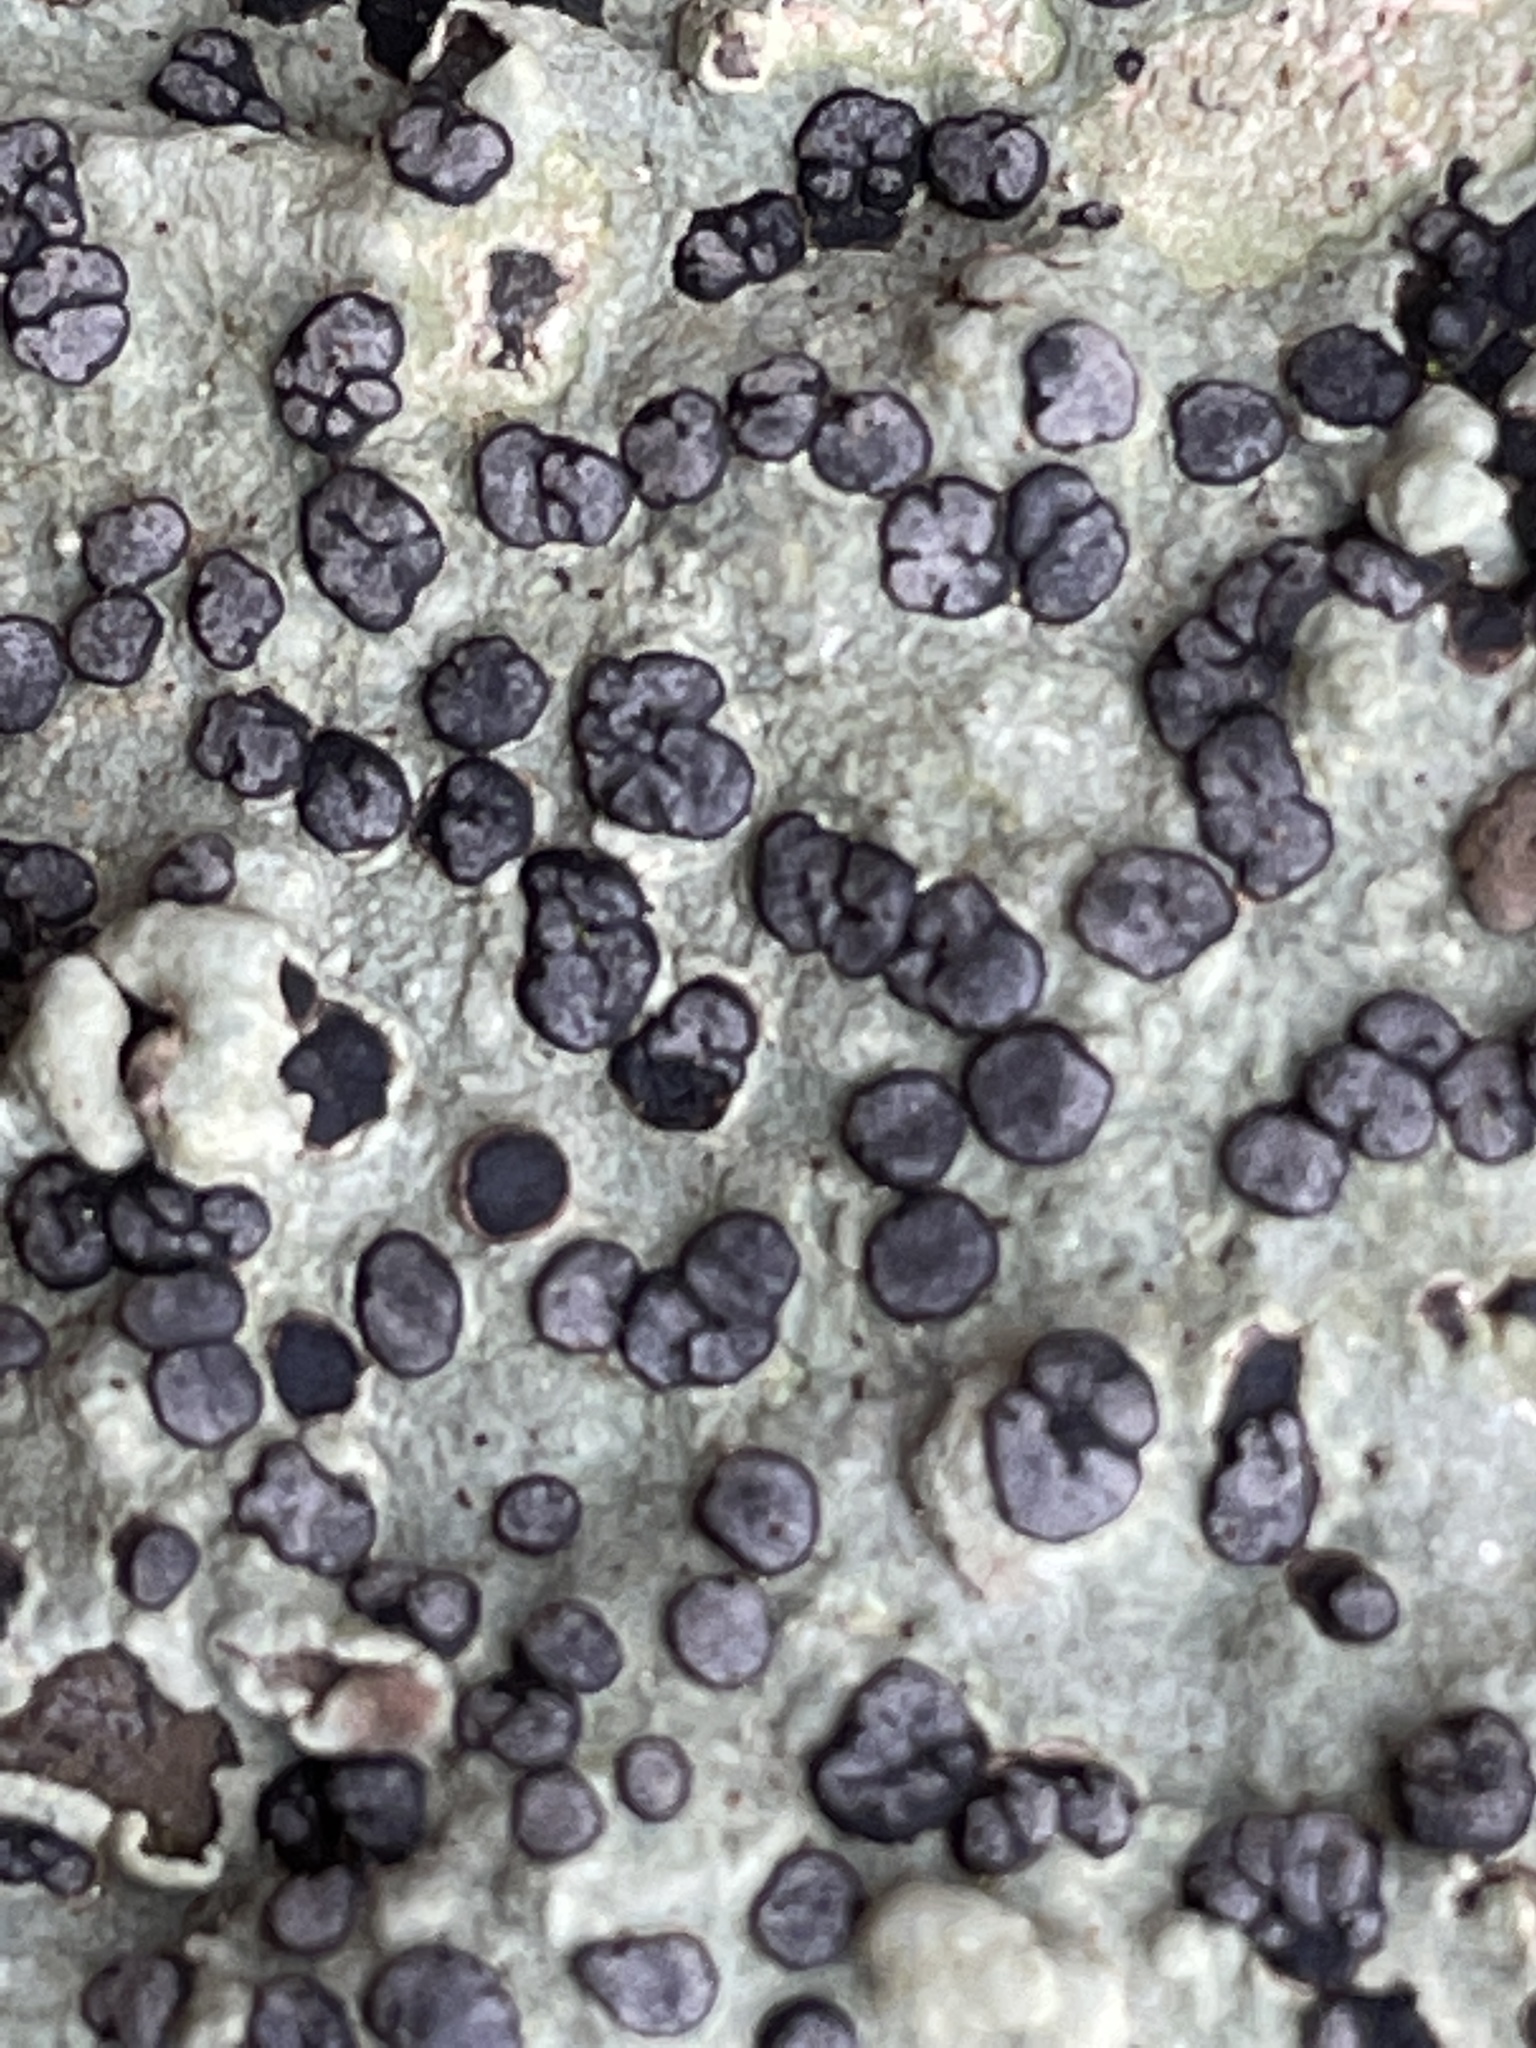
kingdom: Fungi
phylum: Ascomycota
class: Lecanoromycetes
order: Lecideales
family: Lecideaceae
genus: Porpidia
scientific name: Porpidia albocaerulescens
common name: Smokey-eyed boulder lichen
